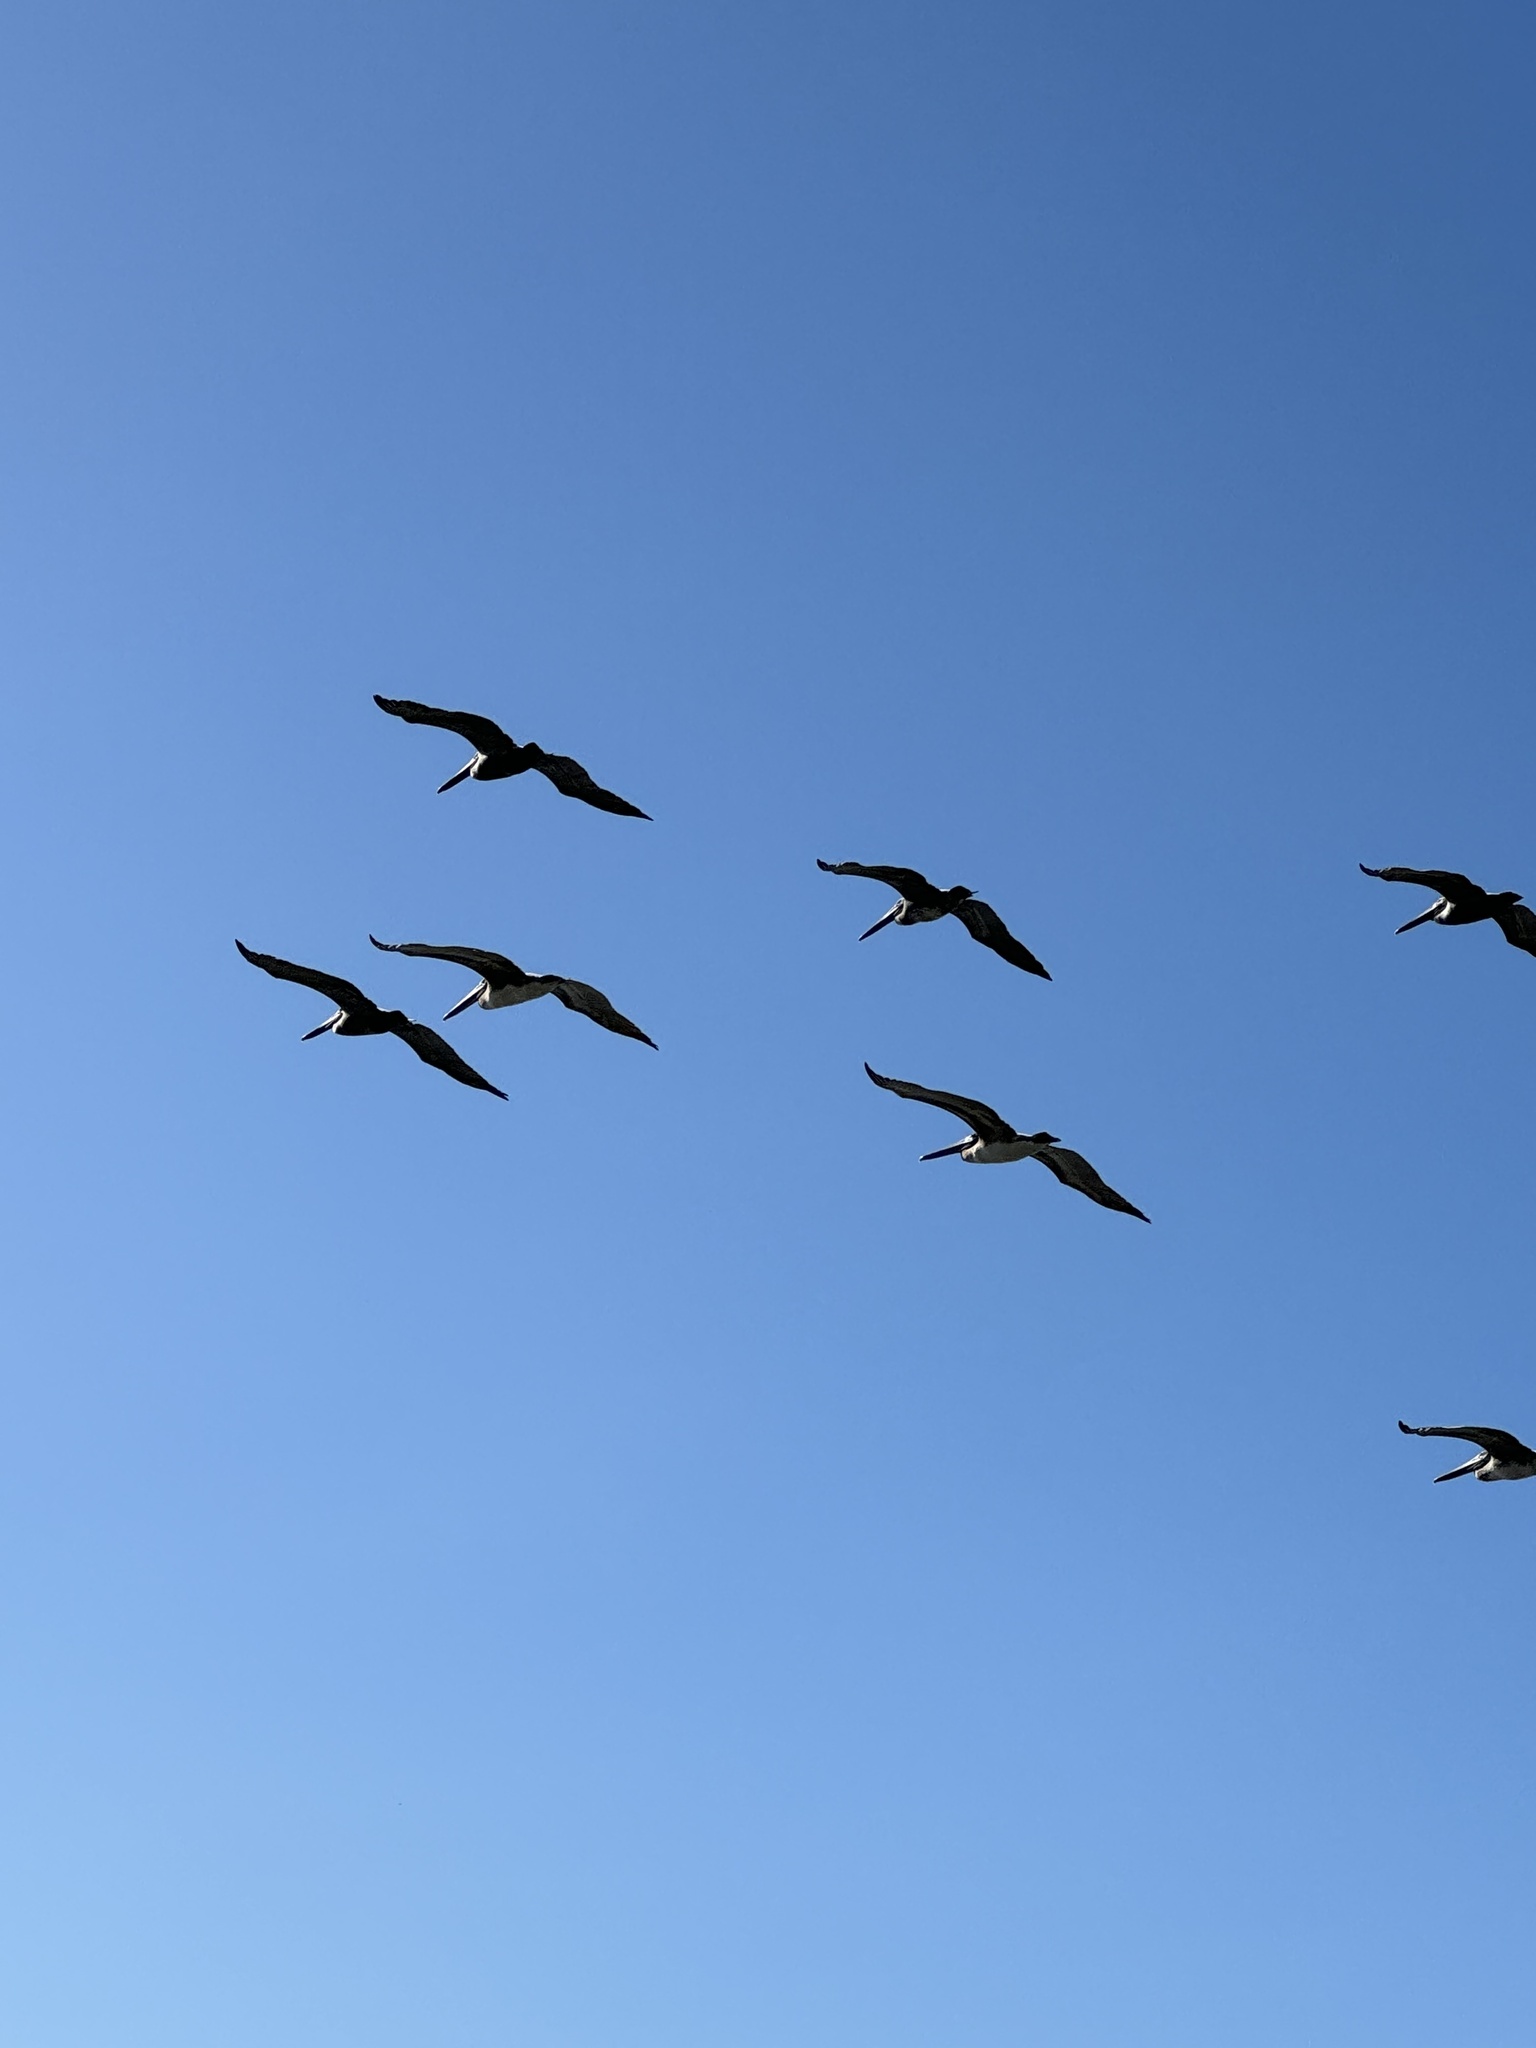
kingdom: Animalia
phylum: Chordata
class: Aves
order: Pelecaniformes
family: Pelecanidae
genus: Pelecanus
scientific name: Pelecanus occidentalis
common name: Brown pelican
